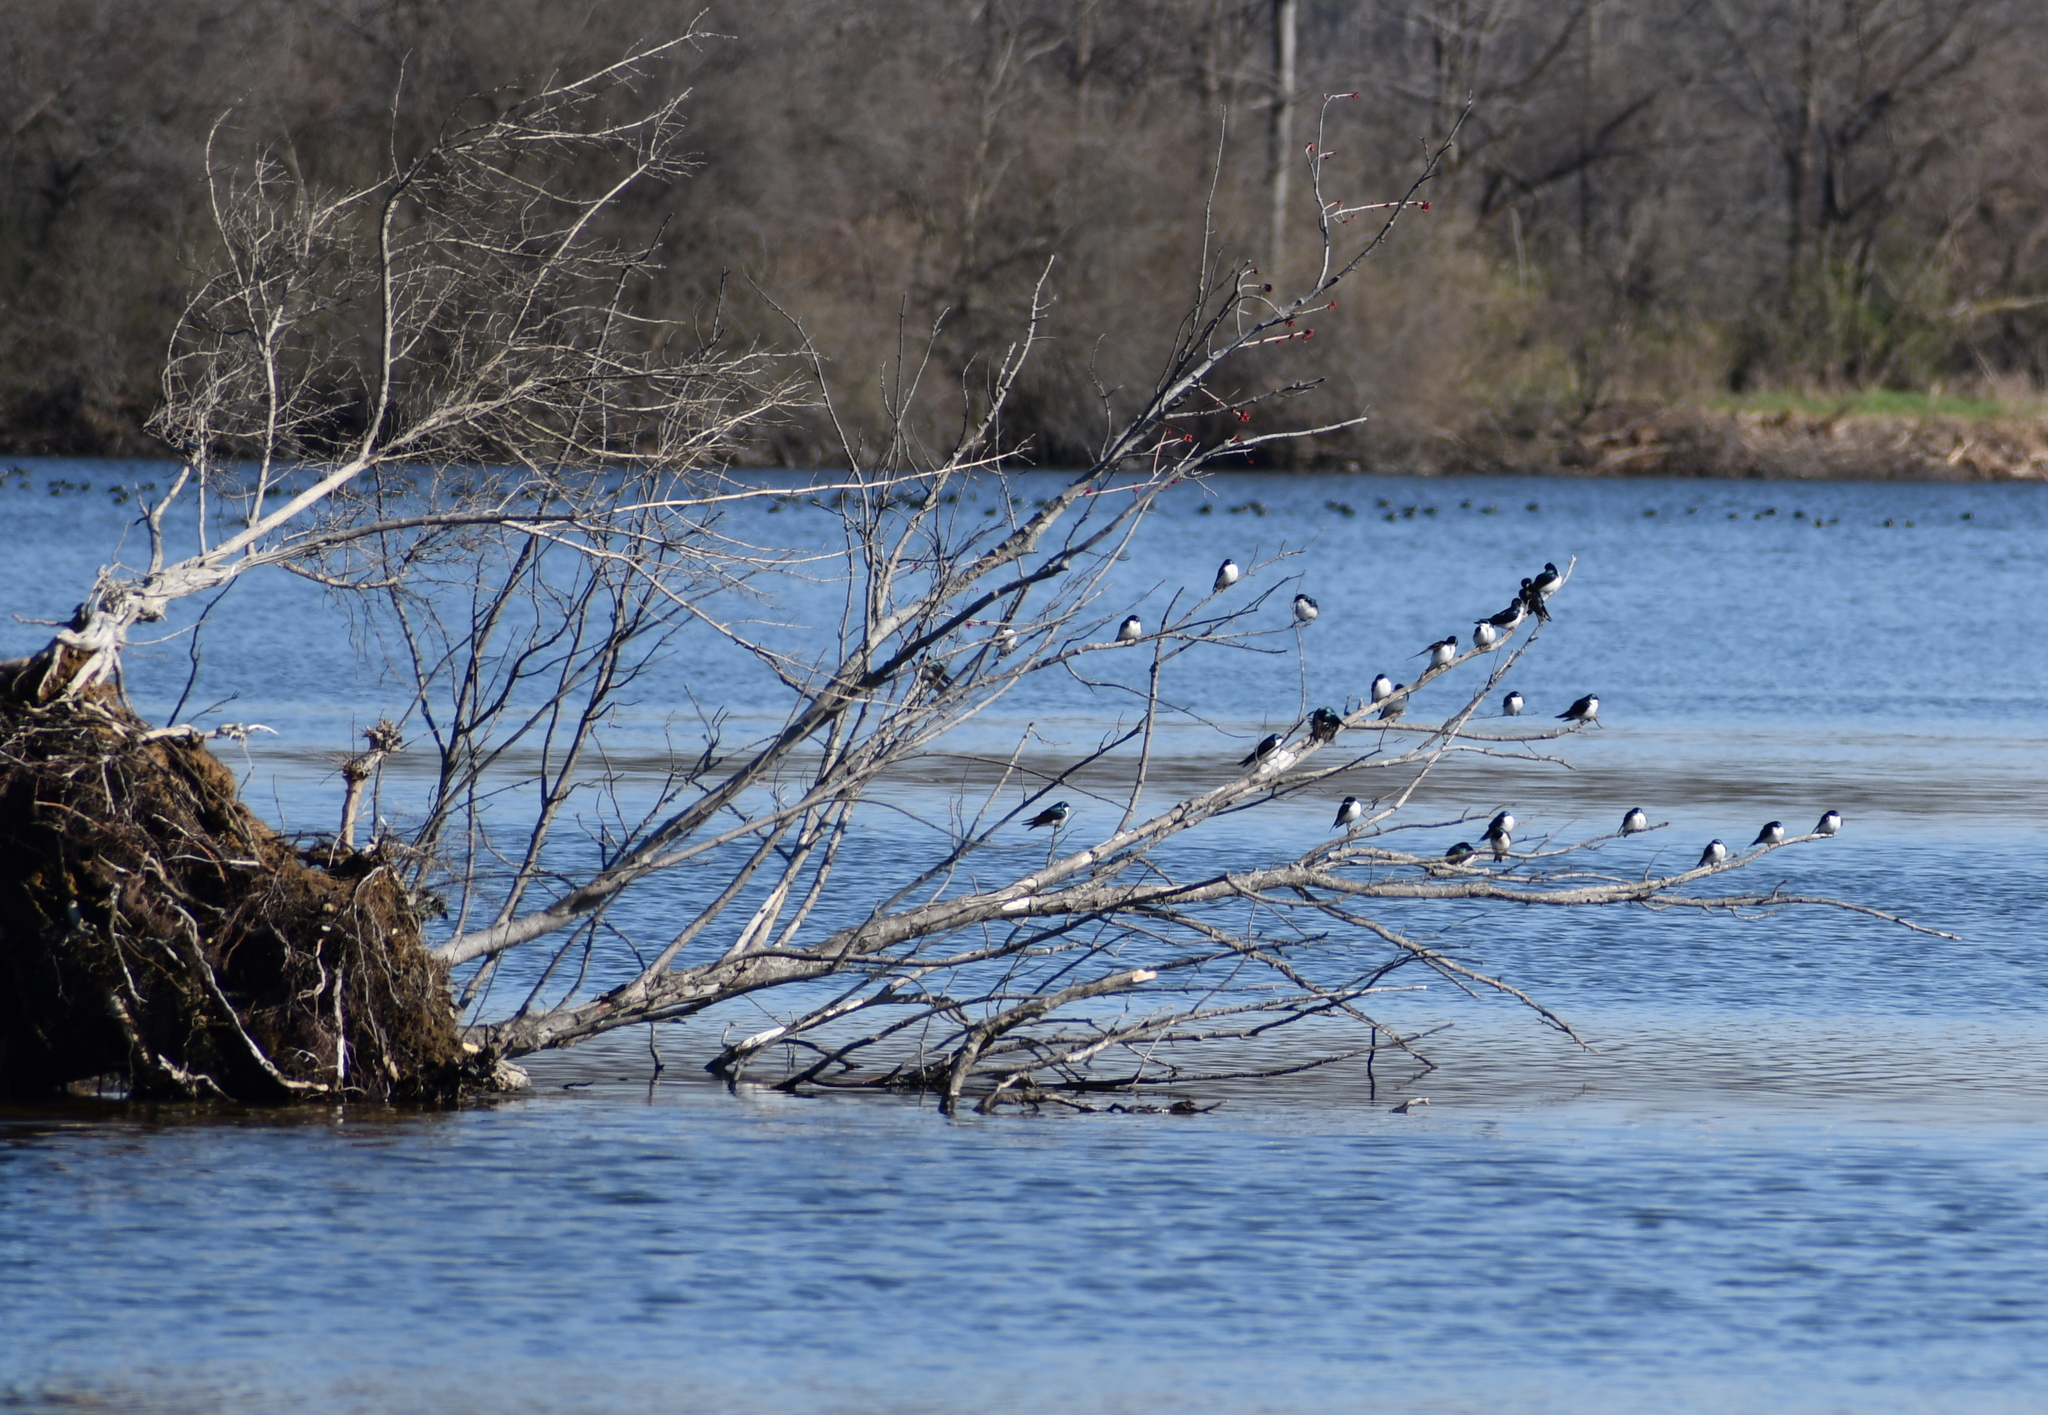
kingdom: Animalia
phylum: Chordata
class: Aves
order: Passeriformes
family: Hirundinidae
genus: Tachycineta
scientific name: Tachycineta bicolor
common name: Tree swallow
